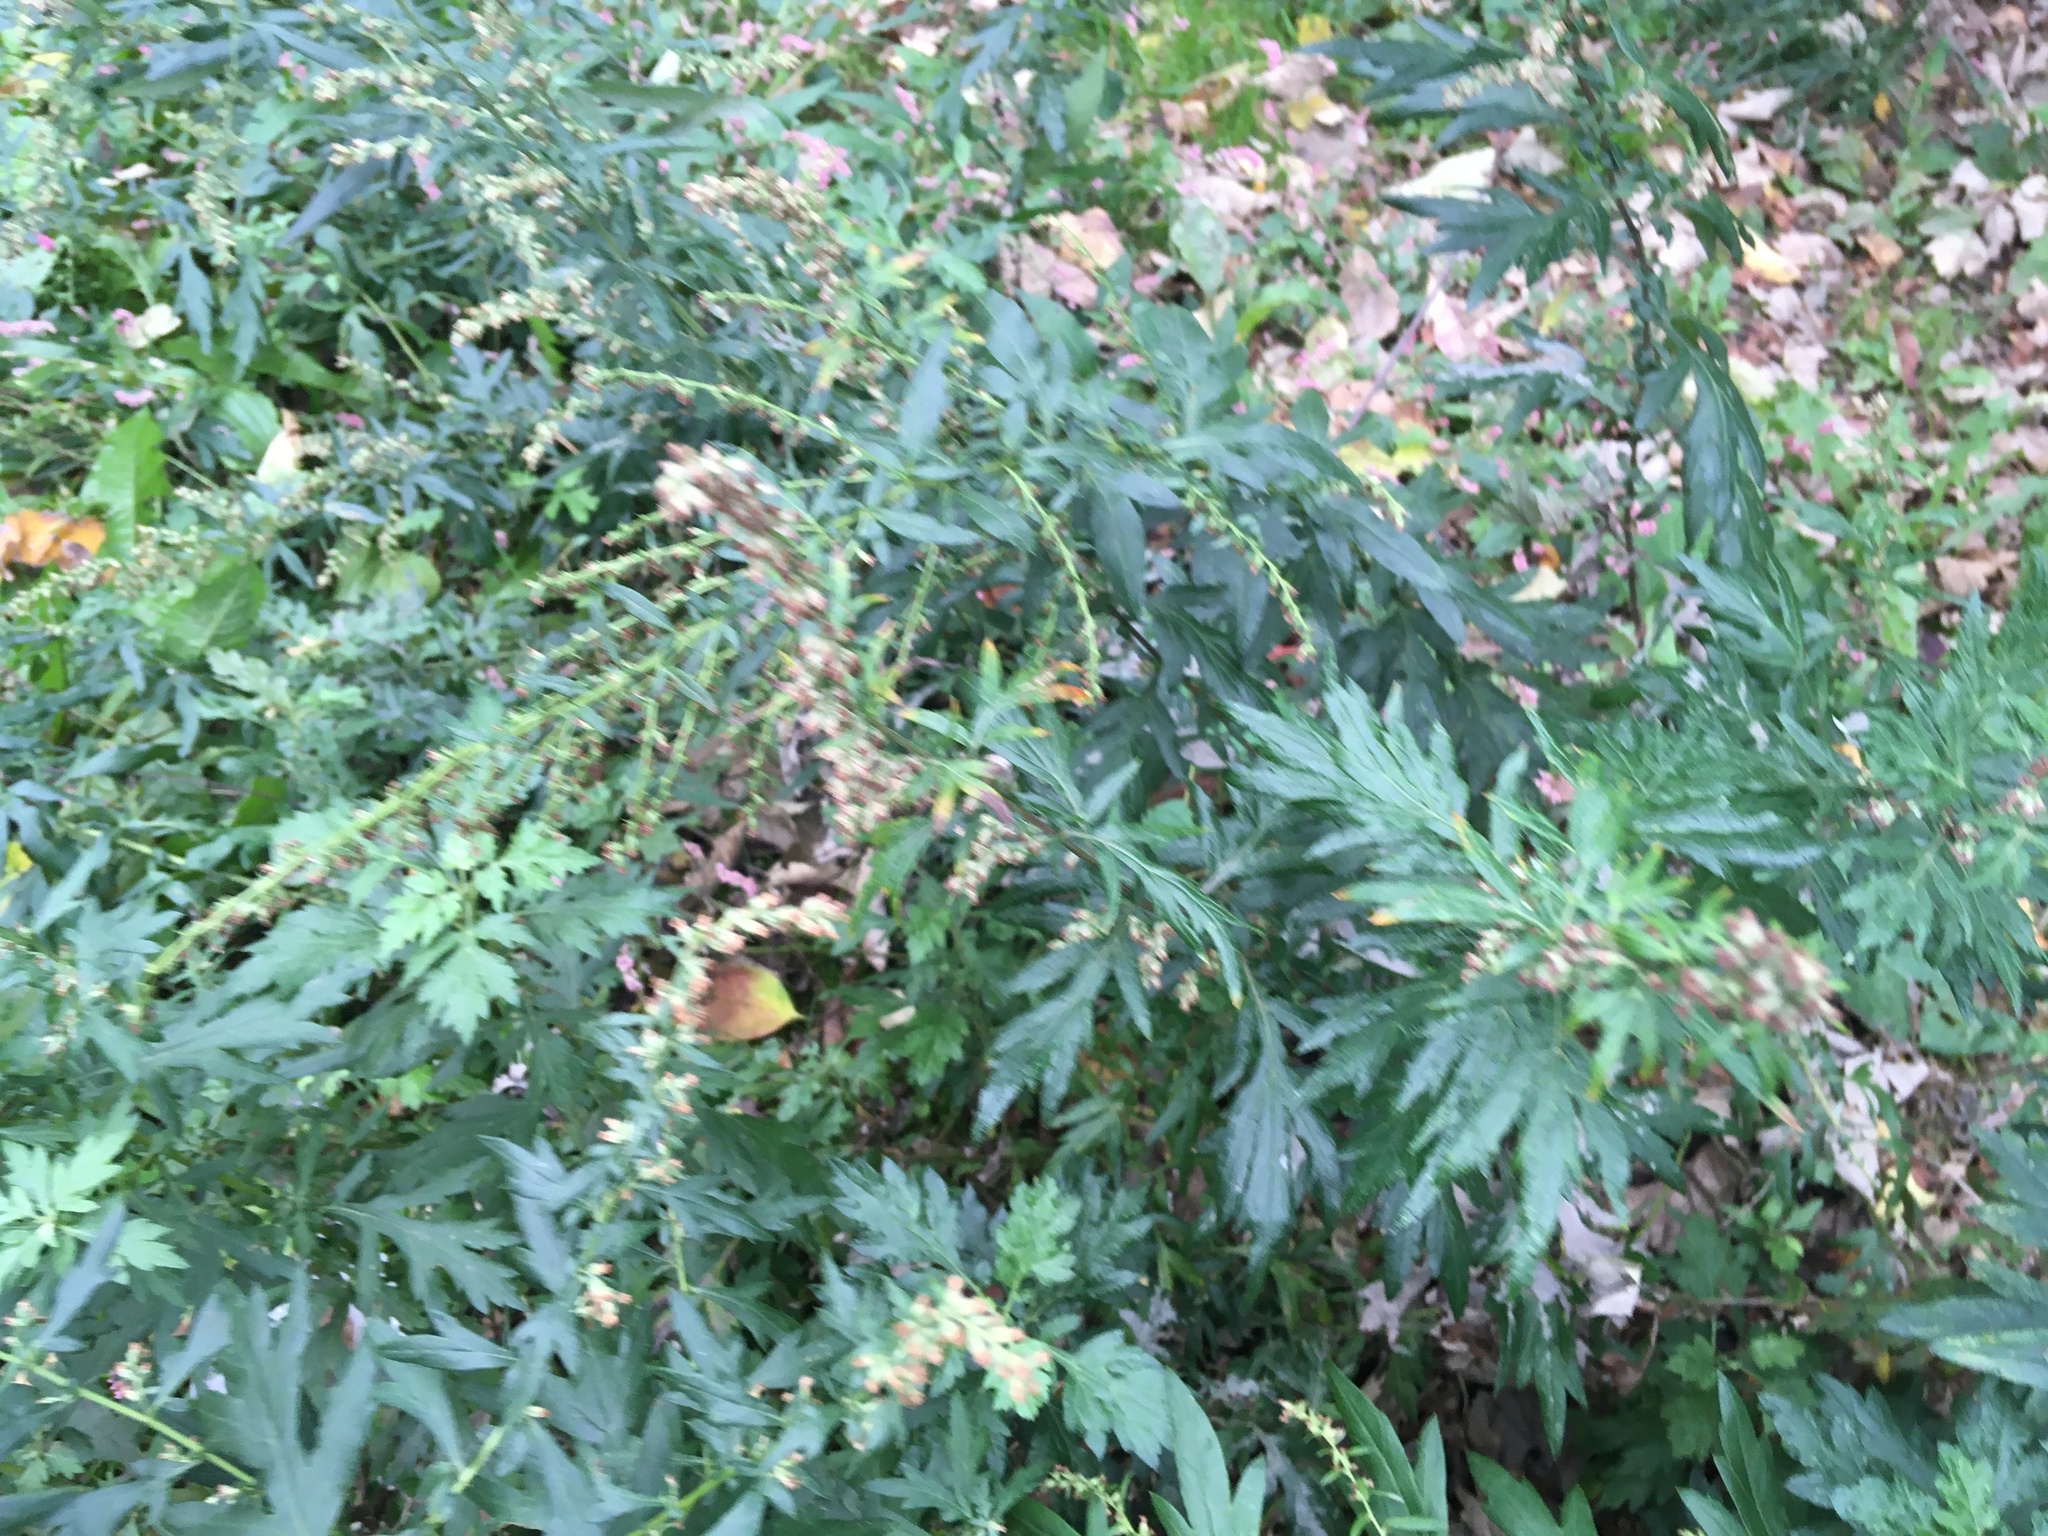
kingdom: Plantae
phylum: Tracheophyta
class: Magnoliopsida
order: Asterales
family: Asteraceae
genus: Artemisia
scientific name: Artemisia vulgaris
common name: Mugwort
